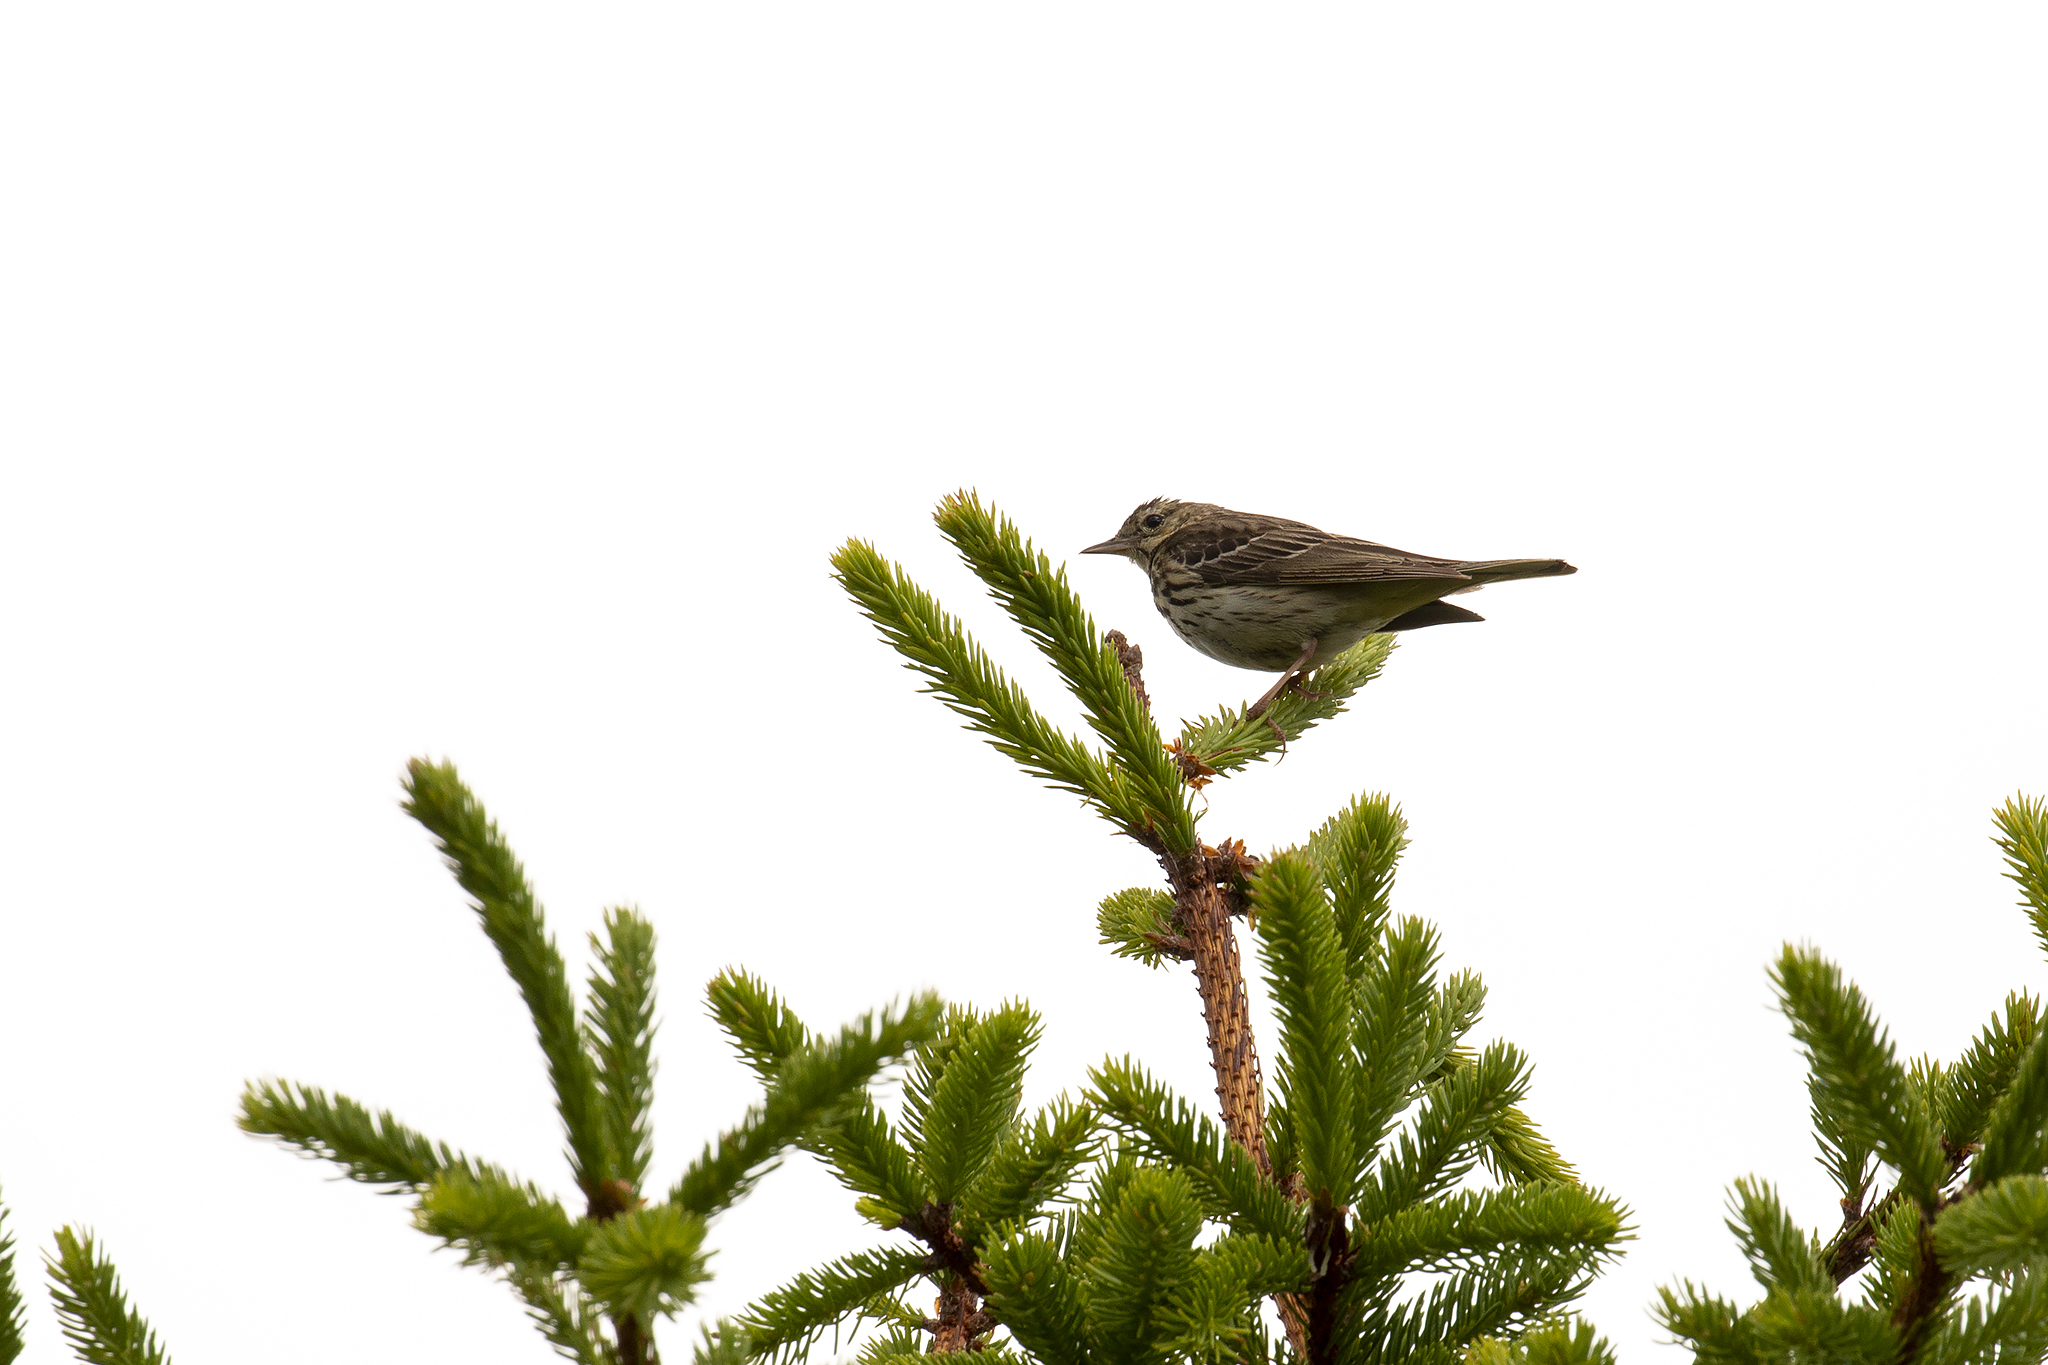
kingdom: Animalia
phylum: Chordata
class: Aves
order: Passeriformes
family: Motacillidae
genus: Anthus
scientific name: Anthus trivialis
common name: Tree pipit
